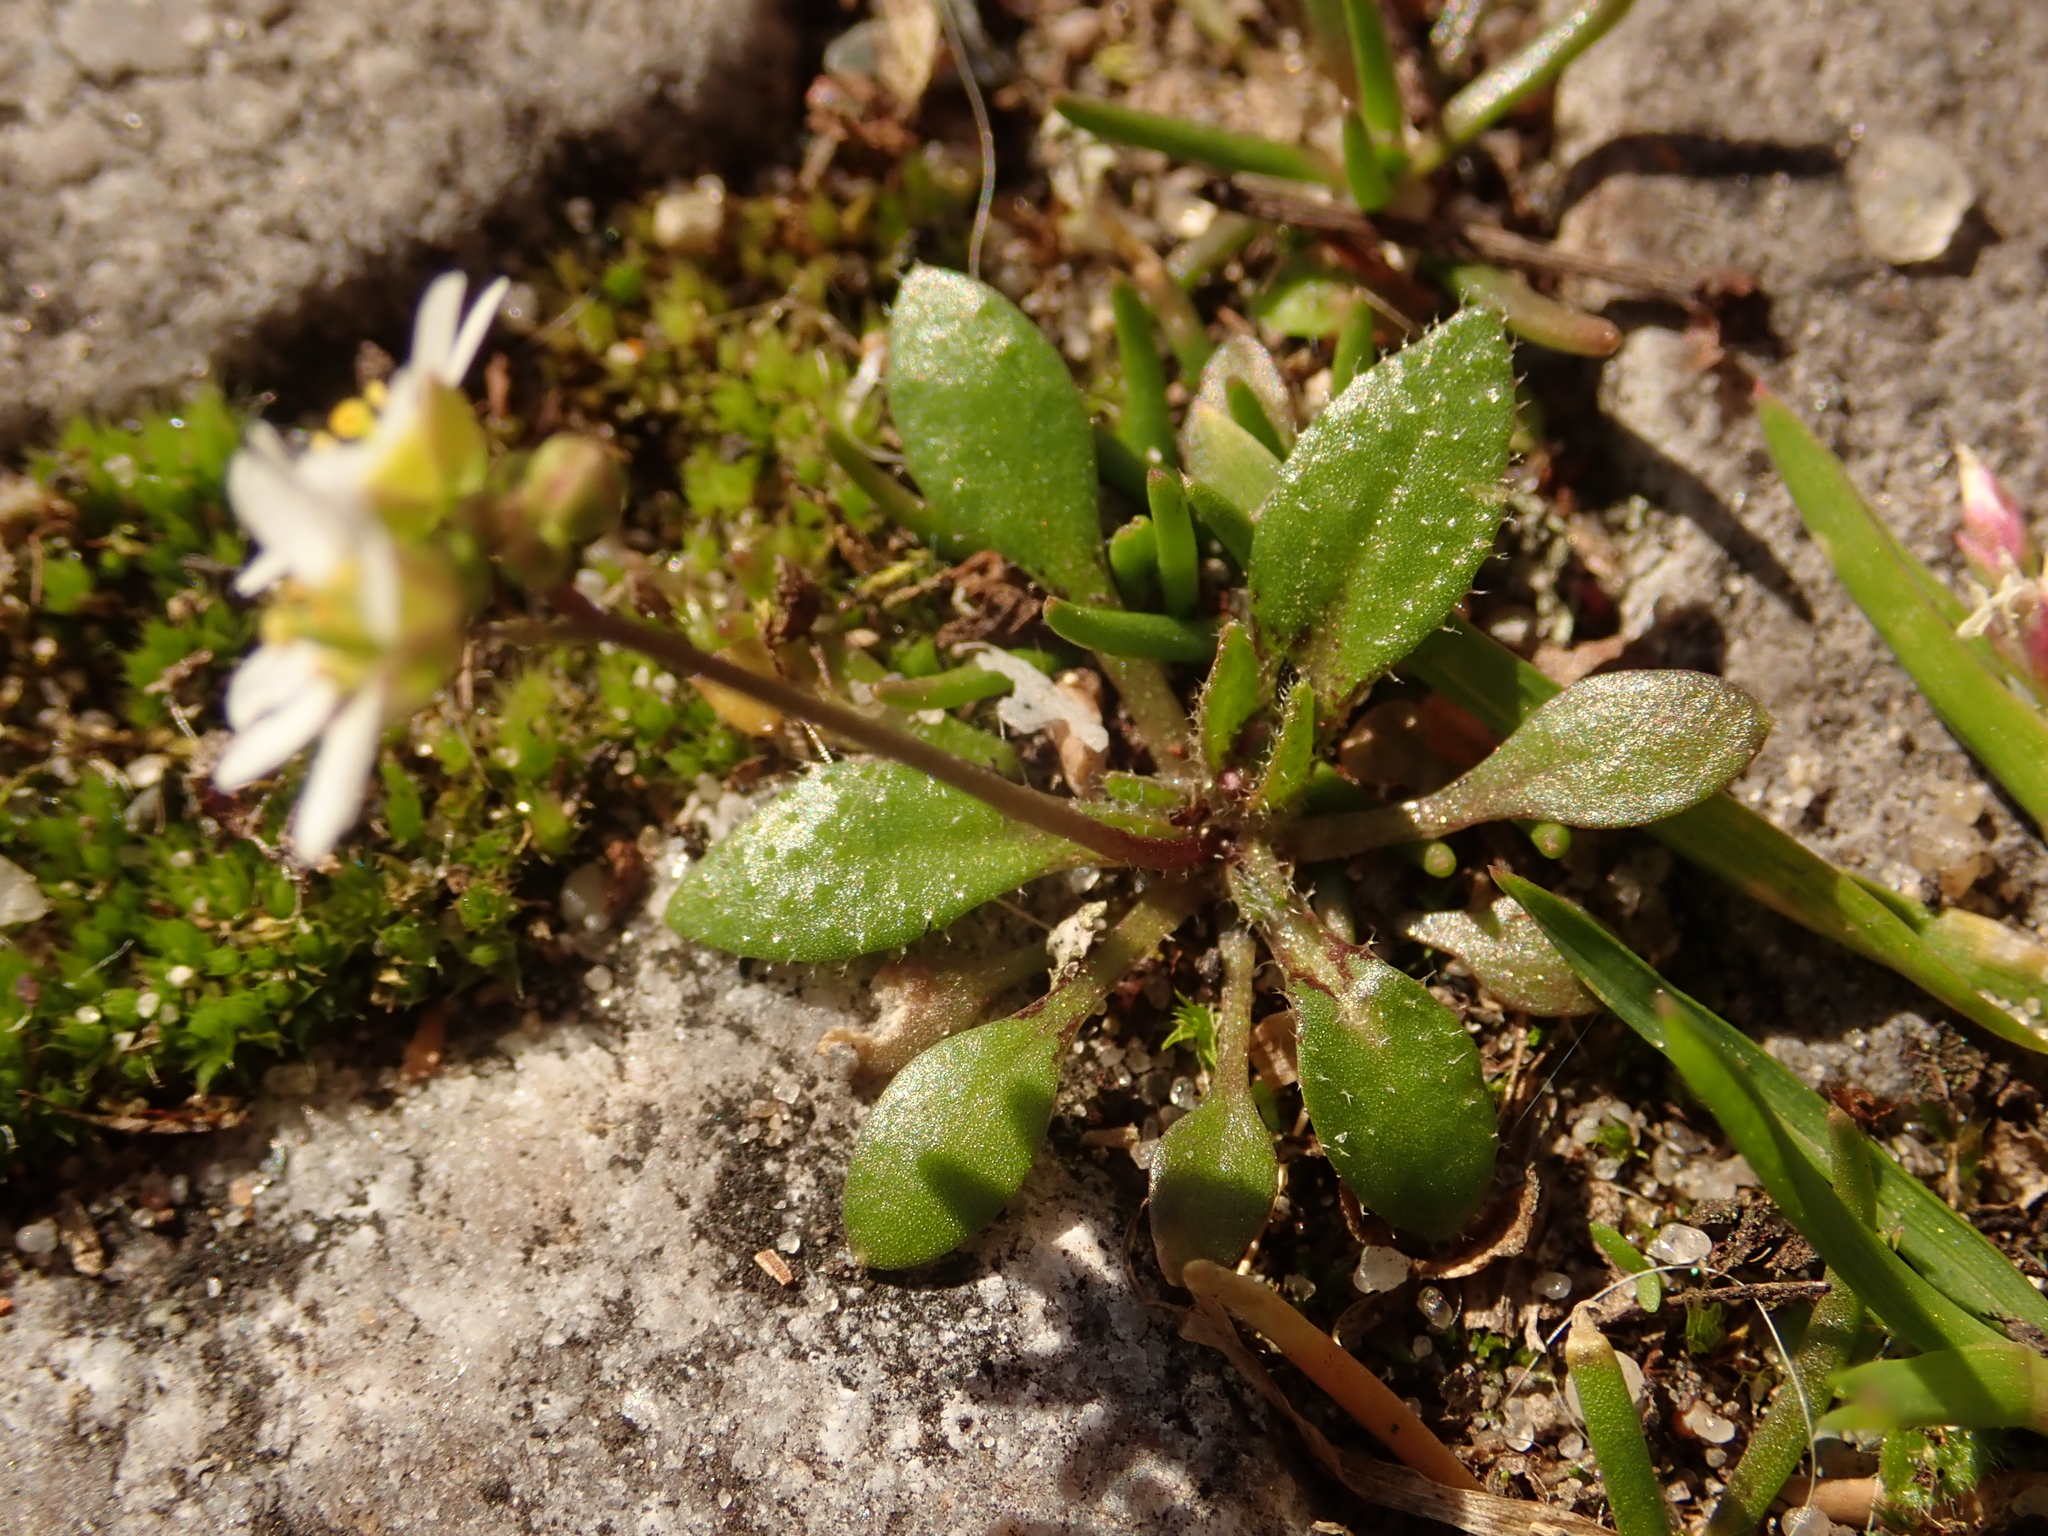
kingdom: Plantae
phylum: Tracheophyta
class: Magnoliopsida
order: Brassicales
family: Brassicaceae
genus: Draba
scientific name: Draba verna
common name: Spring draba
